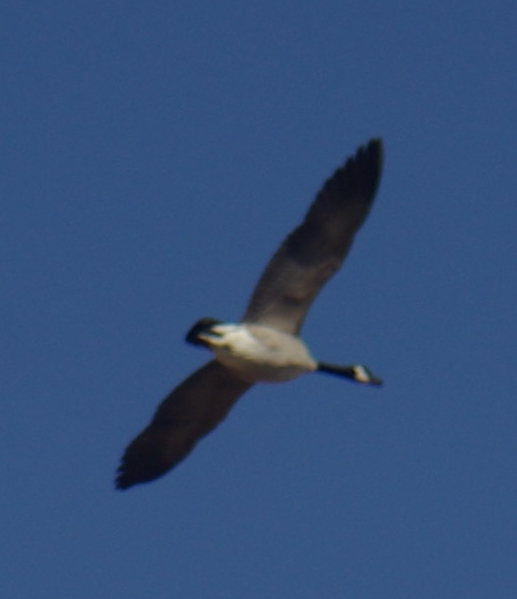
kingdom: Animalia
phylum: Chordata
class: Aves
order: Anseriformes
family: Anatidae
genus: Branta
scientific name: Branta canadensis
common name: Canada goose
